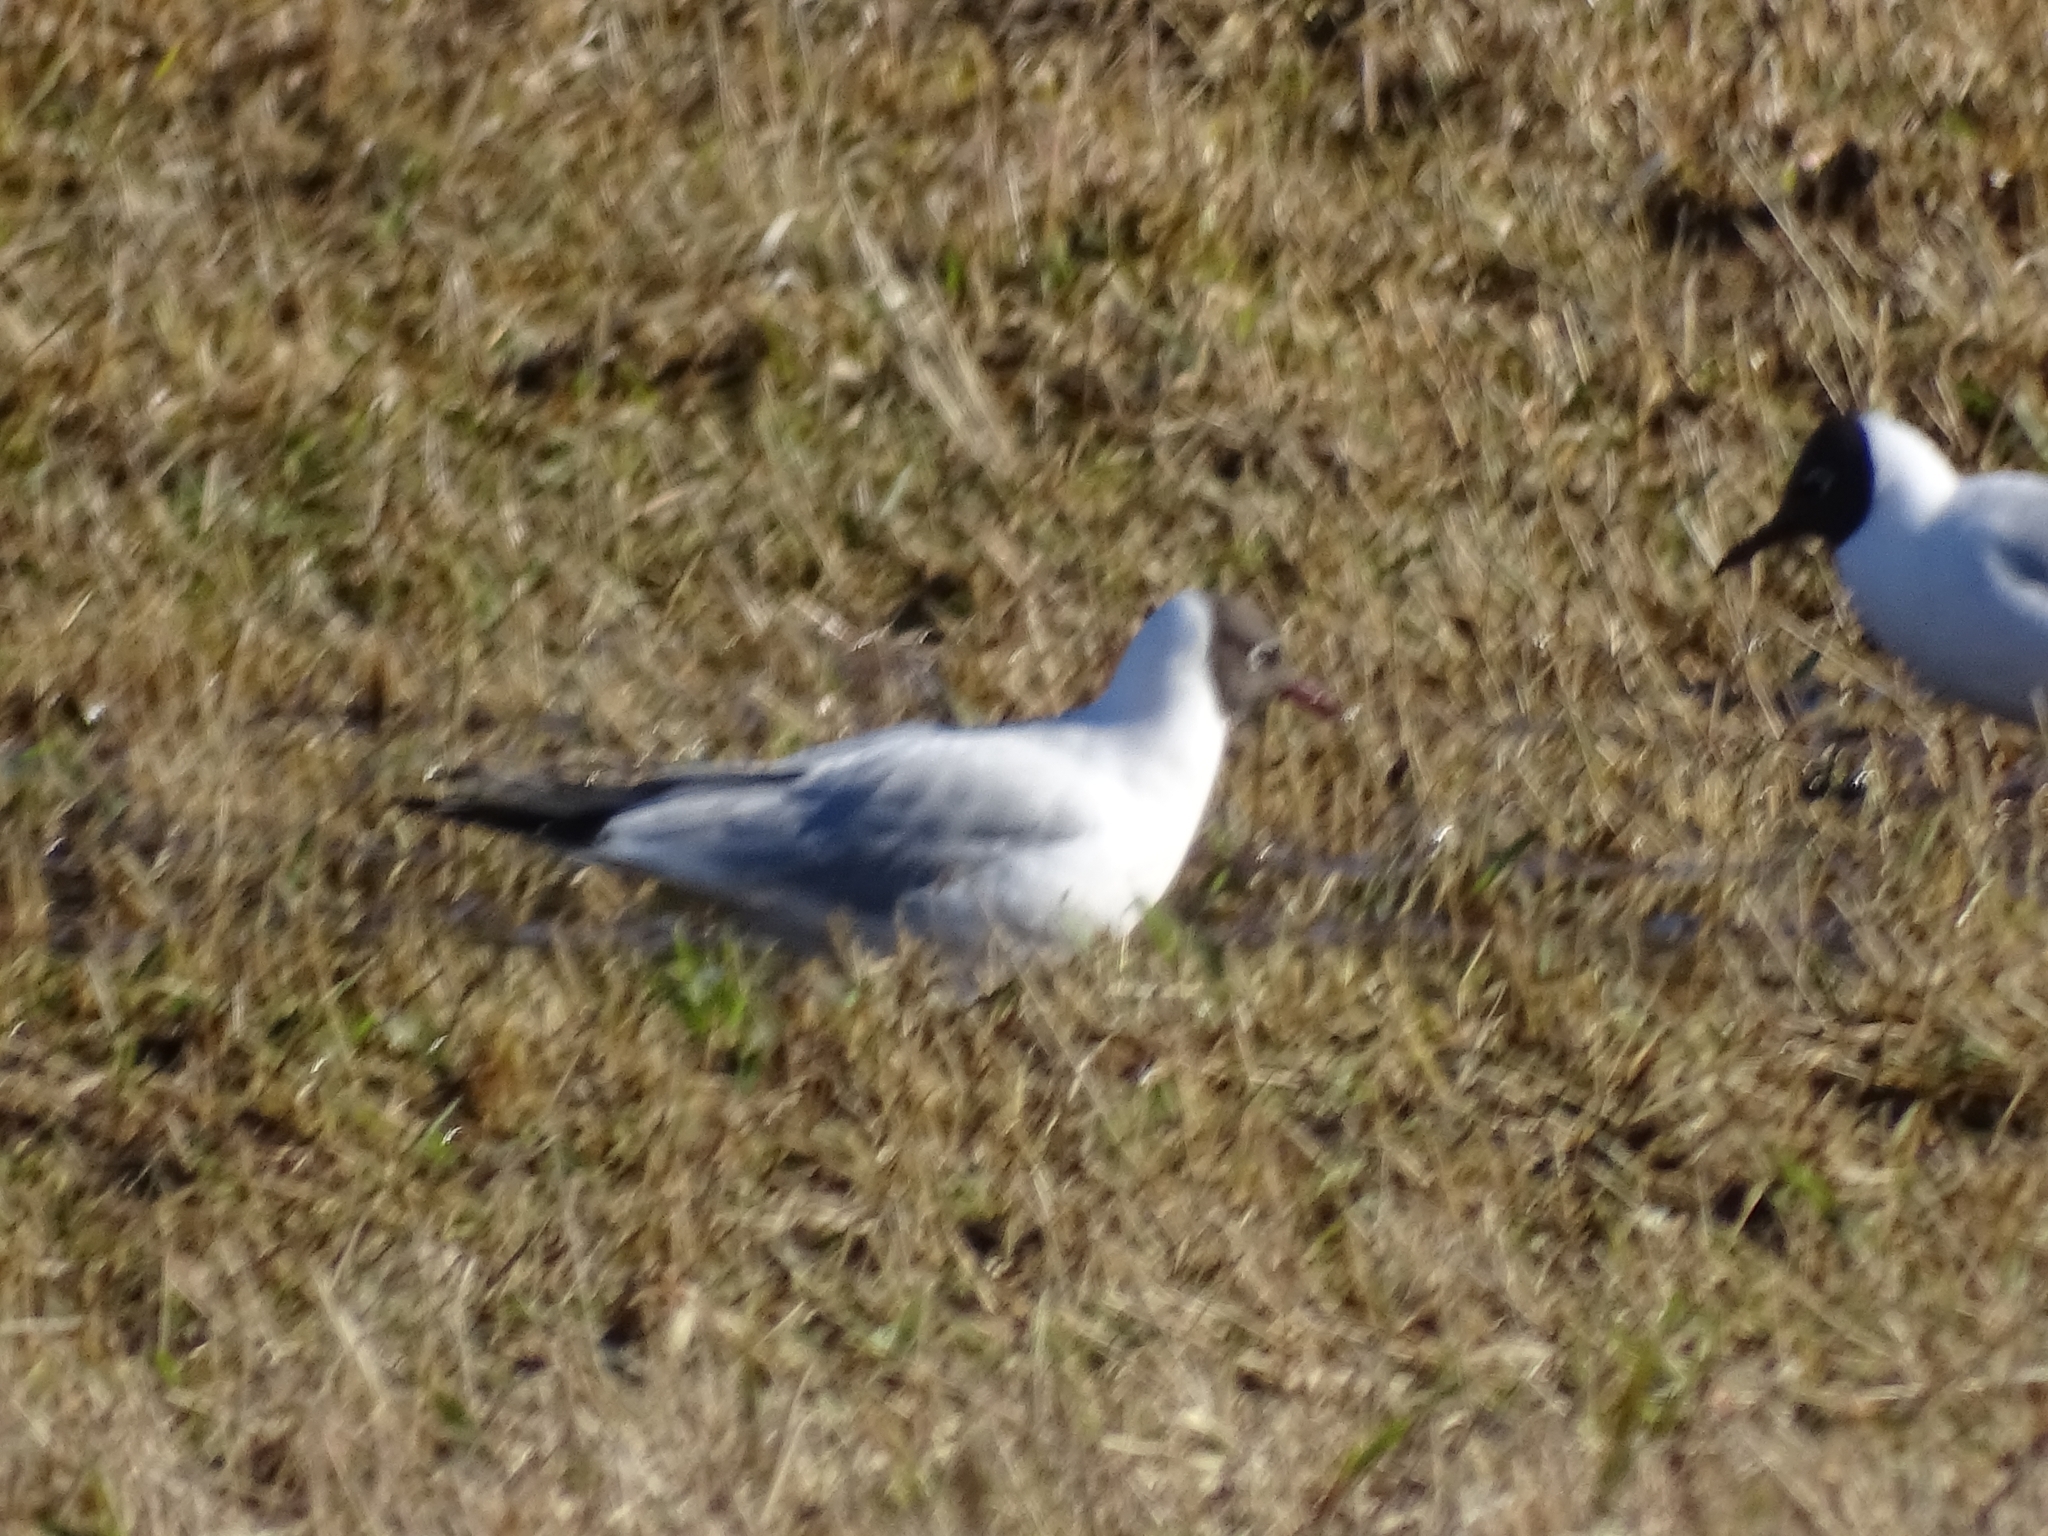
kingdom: Animalia
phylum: Chordata
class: Aves
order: Charadriiformes
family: Laridae
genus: Chroicocephalus
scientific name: Chroicocephalus ridibundus
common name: Black-headed gull
